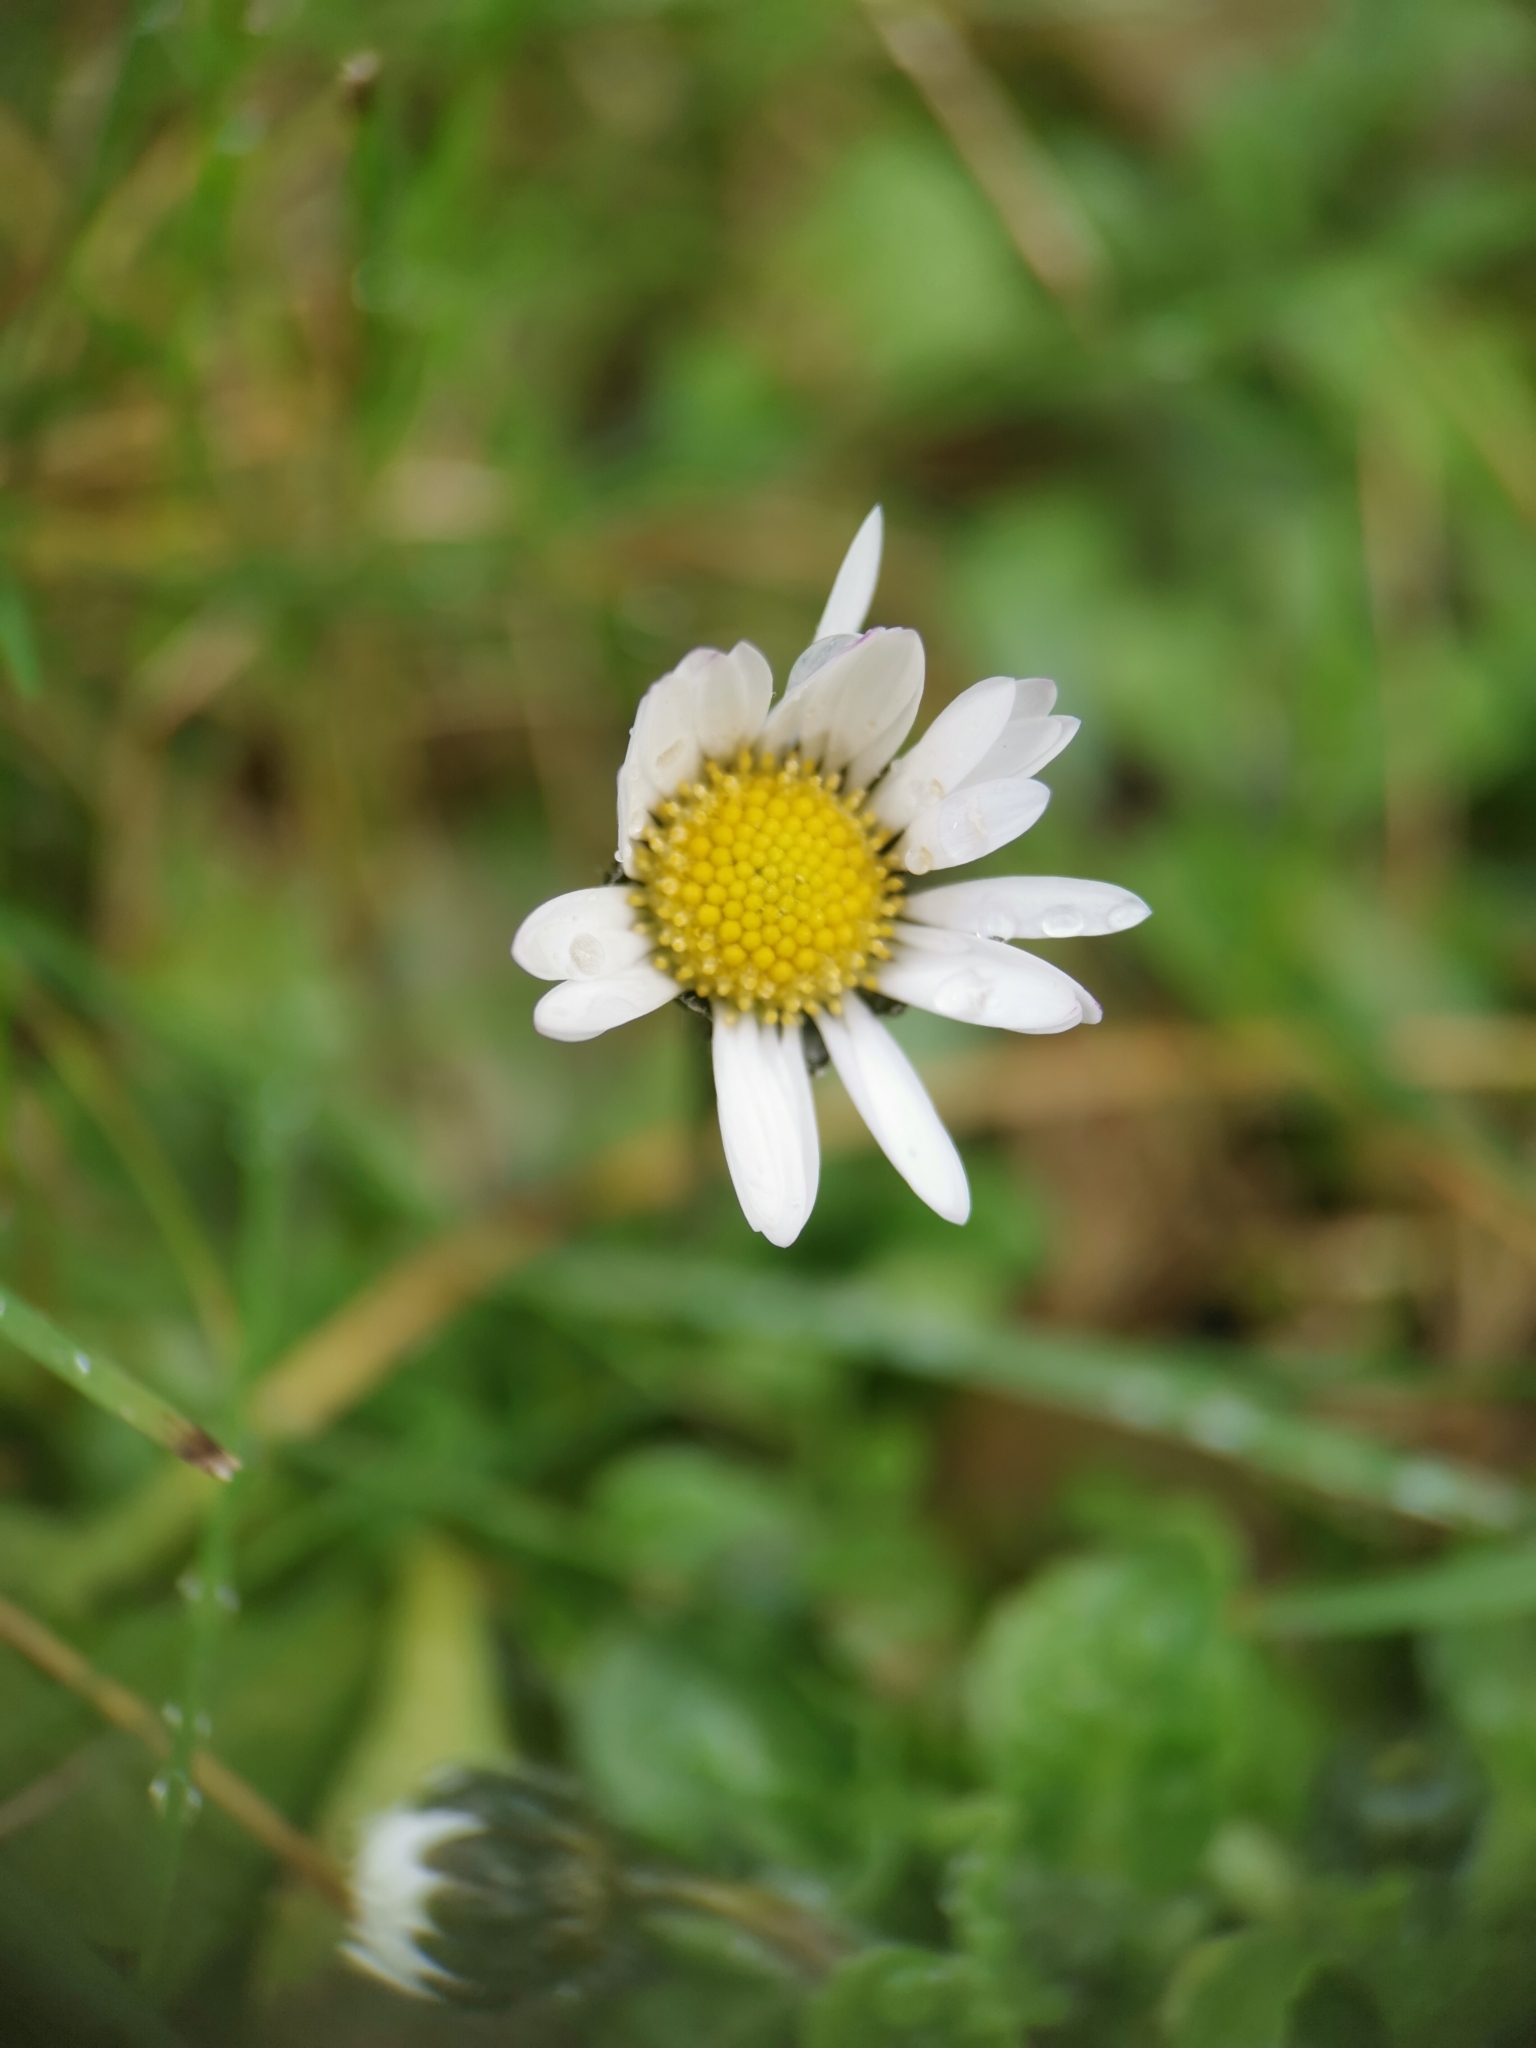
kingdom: Plantae
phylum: Tracheophyta
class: Magnoliopsida
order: Asterales
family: Asteraceae
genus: Bellis
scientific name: Bellis perennis
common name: Lawndaisy
